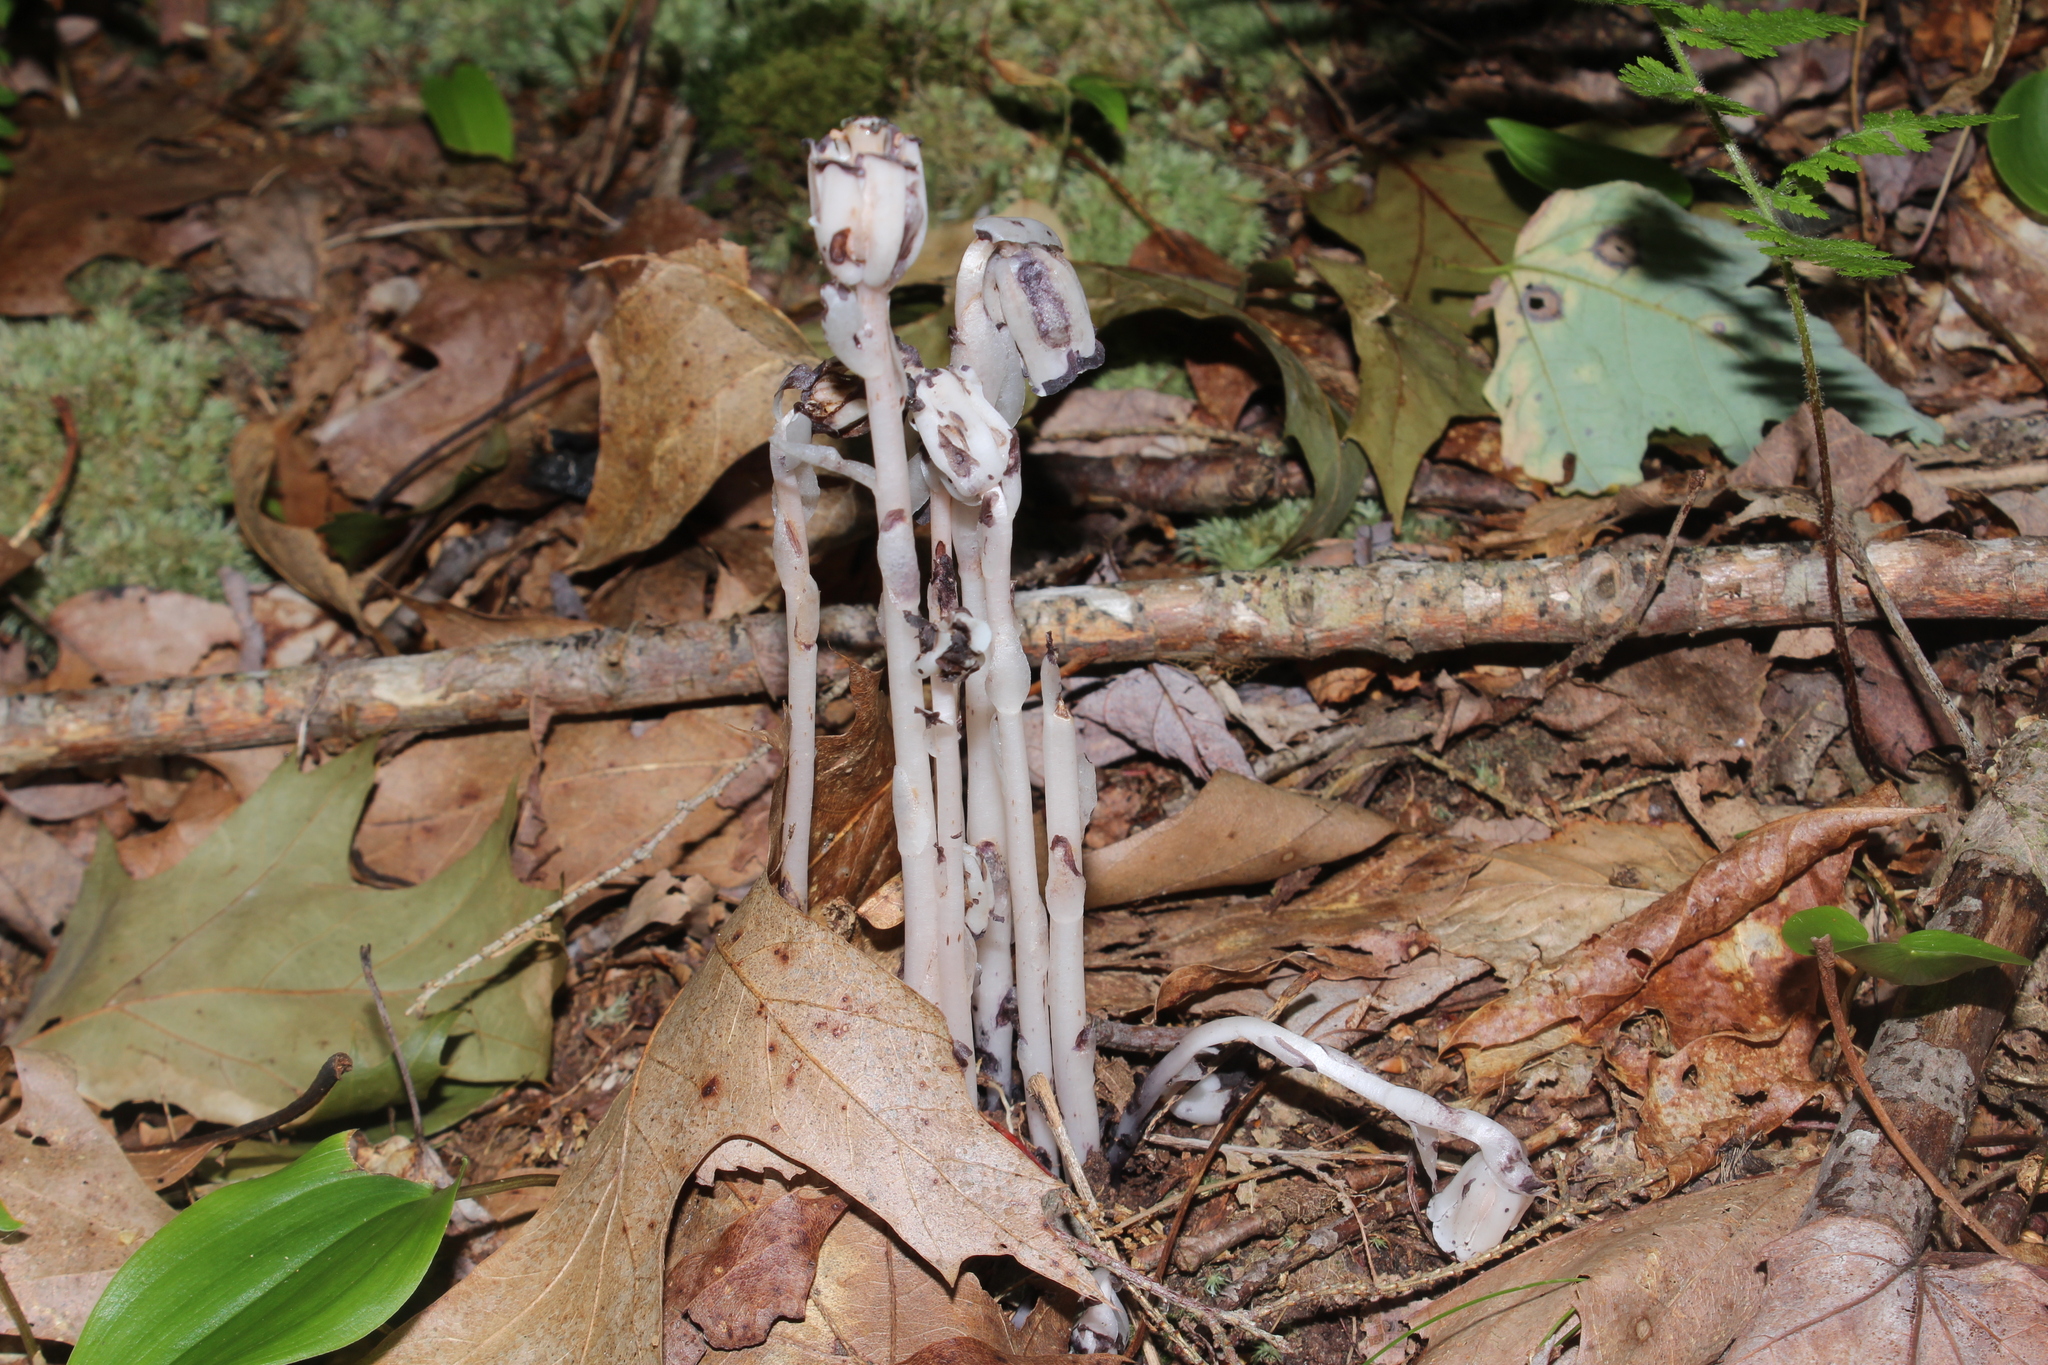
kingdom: Plantae
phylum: Tracheophyta
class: Magnoliopsida
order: Ericales
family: Ericaceae
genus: Monotropa
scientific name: Monotropa uniflora
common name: Convulsion root
